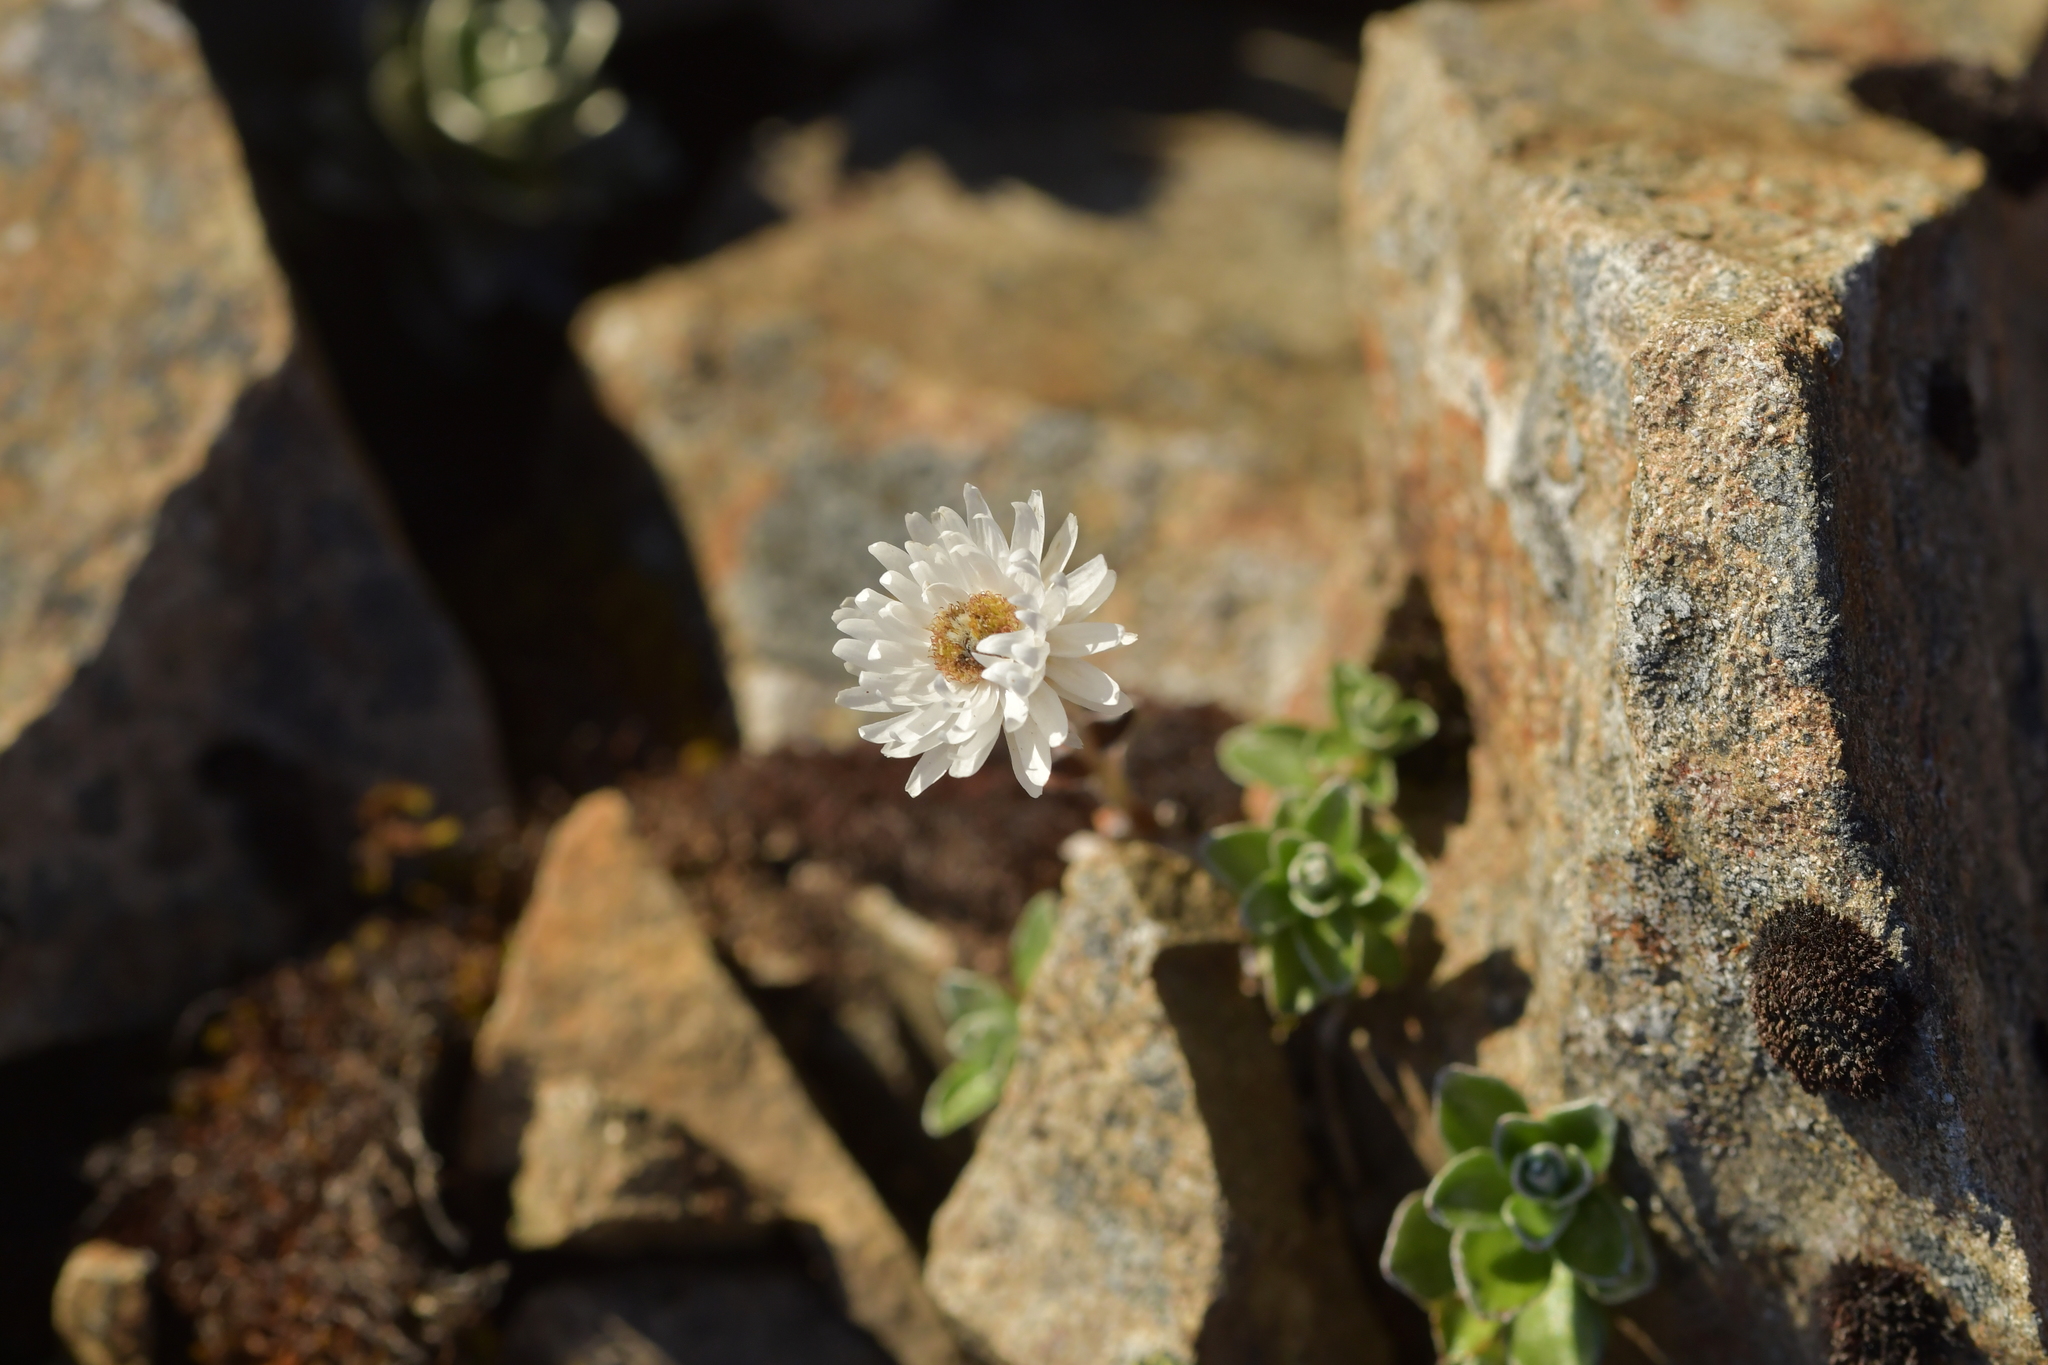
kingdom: Plantae
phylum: Tracheophyta
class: Magnoliopsida
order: Asterales
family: Asteraceae
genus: Anaphalioides
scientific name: Anaphalioides alpina
